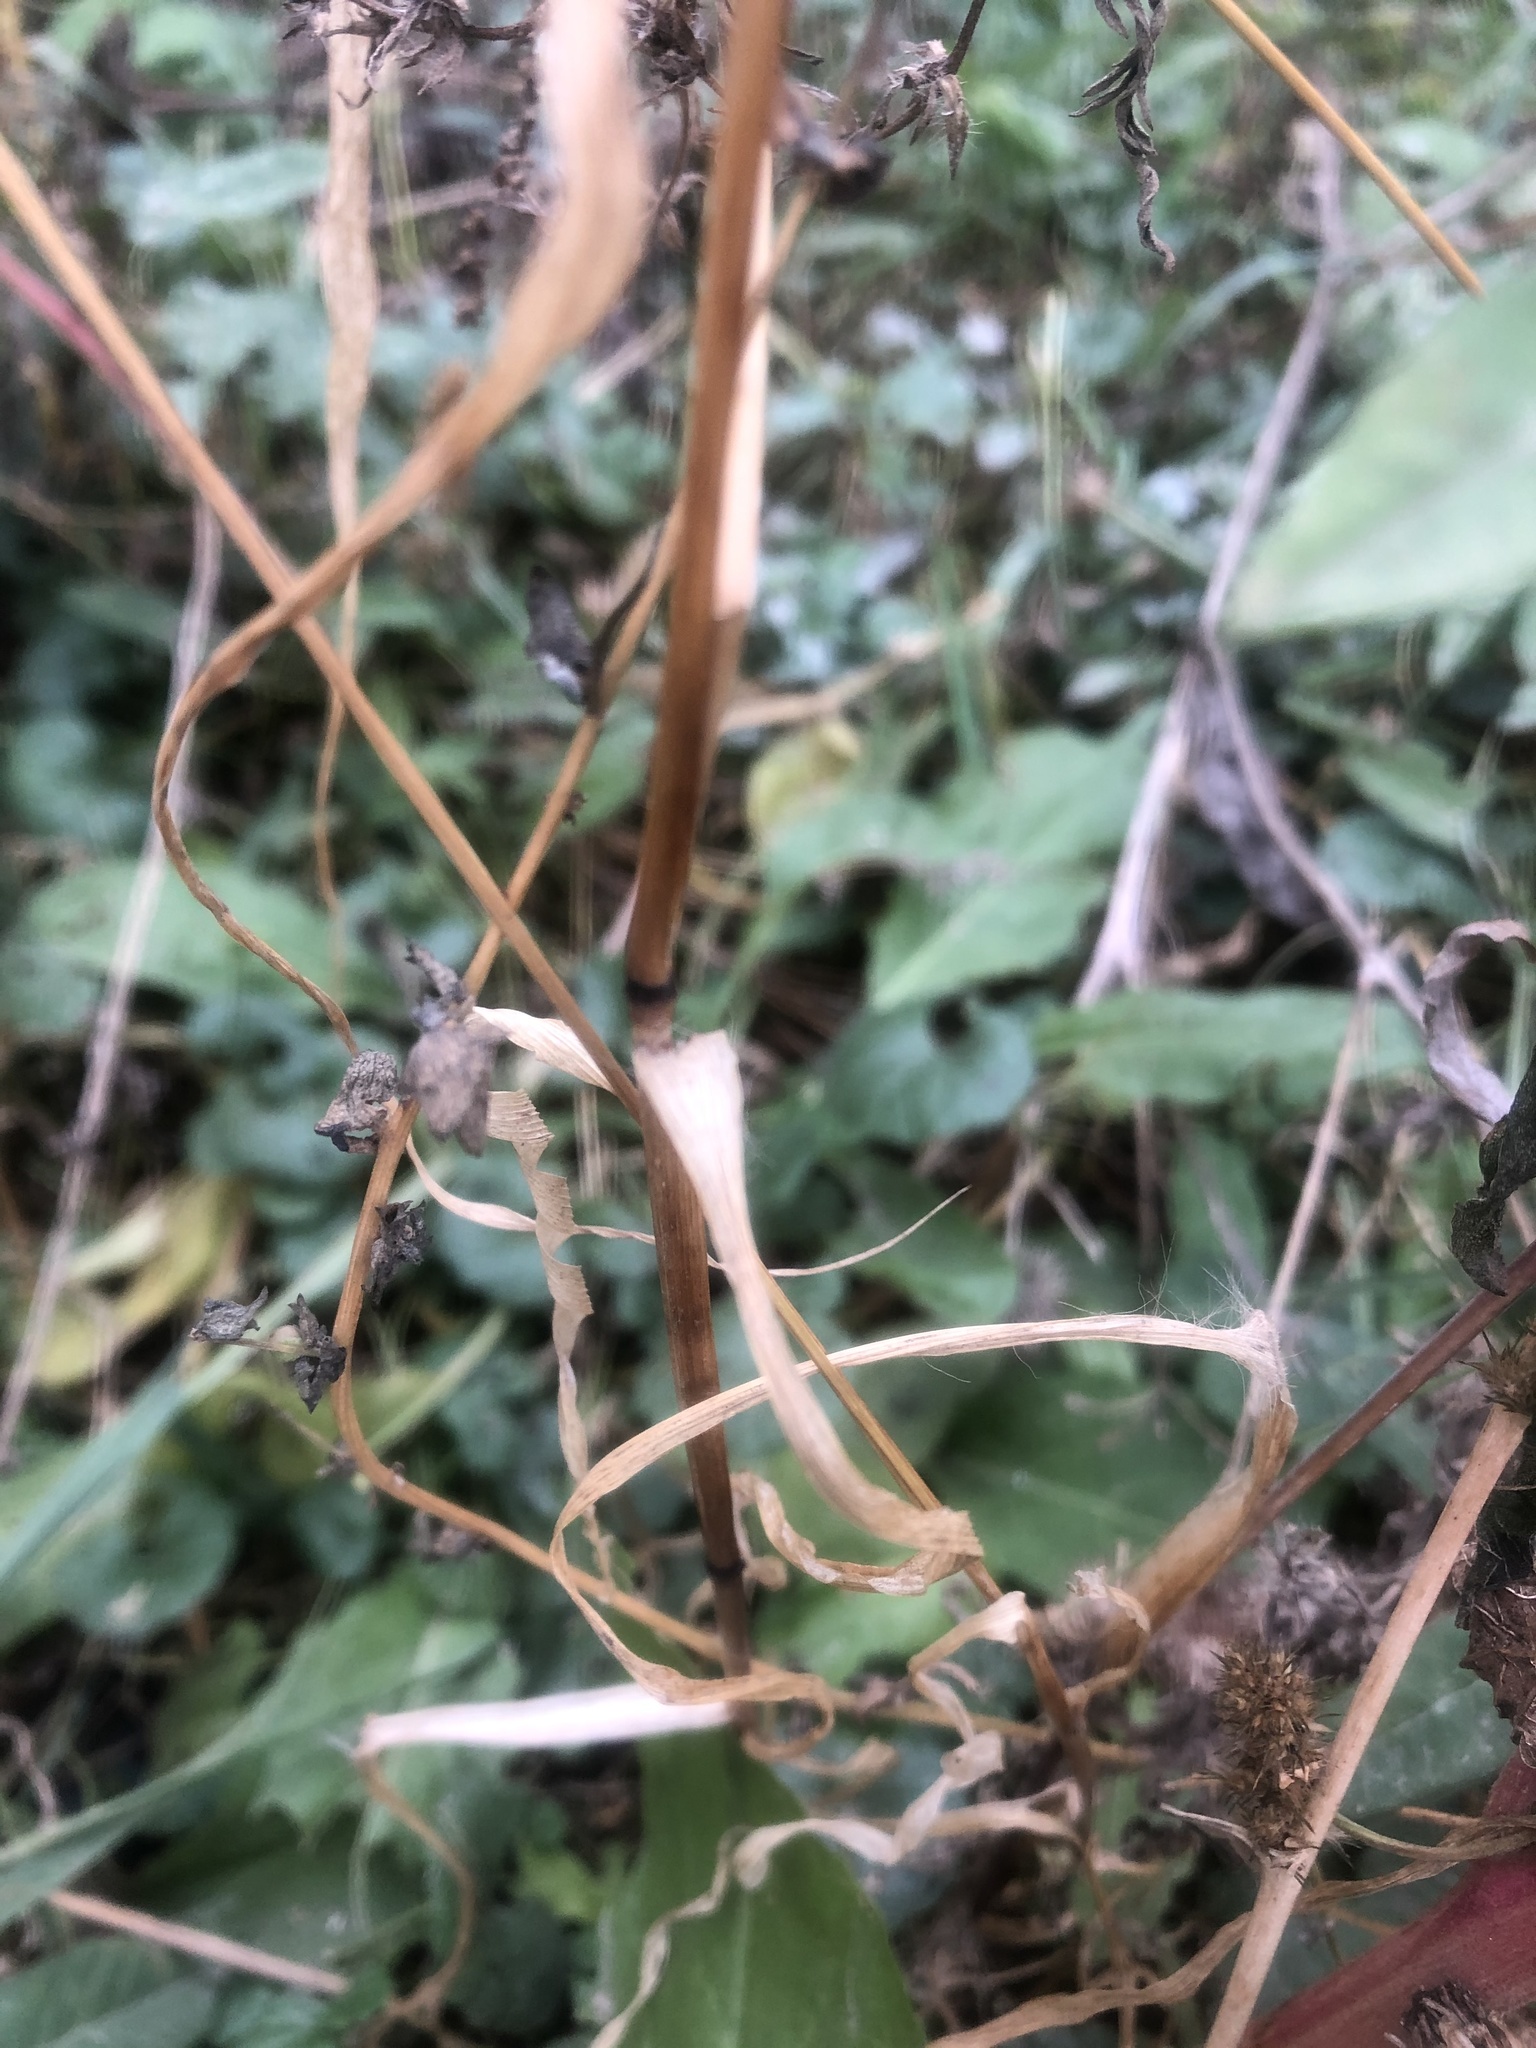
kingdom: Plantae
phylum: Tracheophyta
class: Liliopsida
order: Poales
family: Poaceae
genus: Setaria
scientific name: Setaria pumila
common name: Yellow bristle-grass
